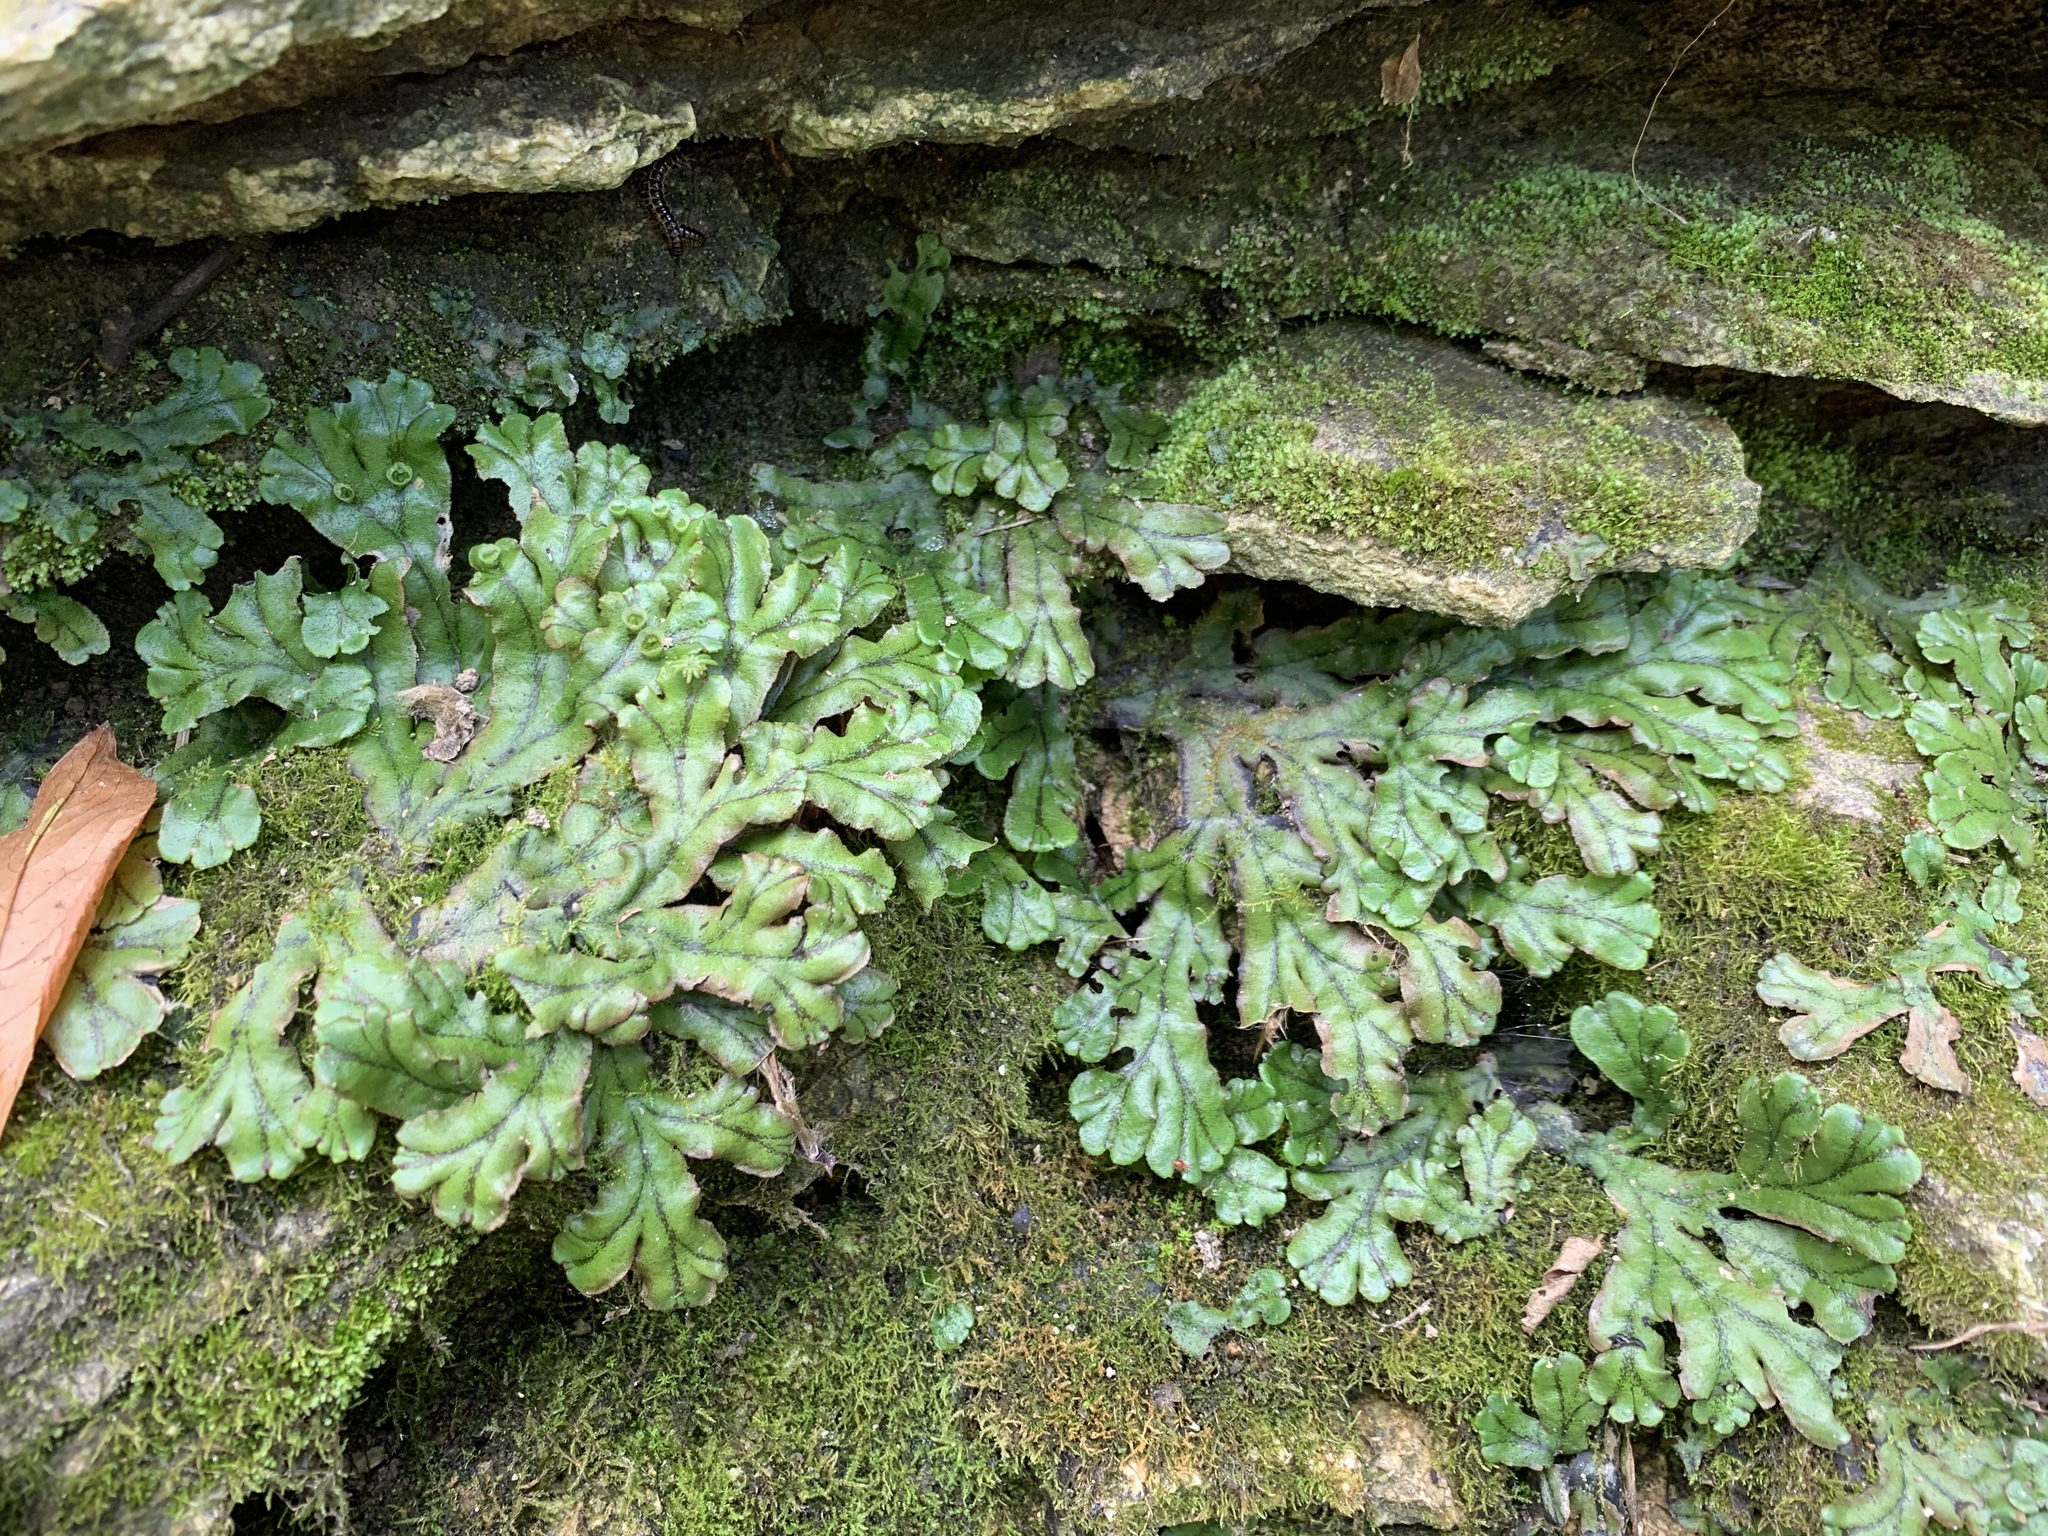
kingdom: Plantae
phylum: Marchantiophyta
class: Marchantiopsida
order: Marchantiales
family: Marchantiaceae
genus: Marchantia
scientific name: Marchantia polymorpha
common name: Common liverwort
